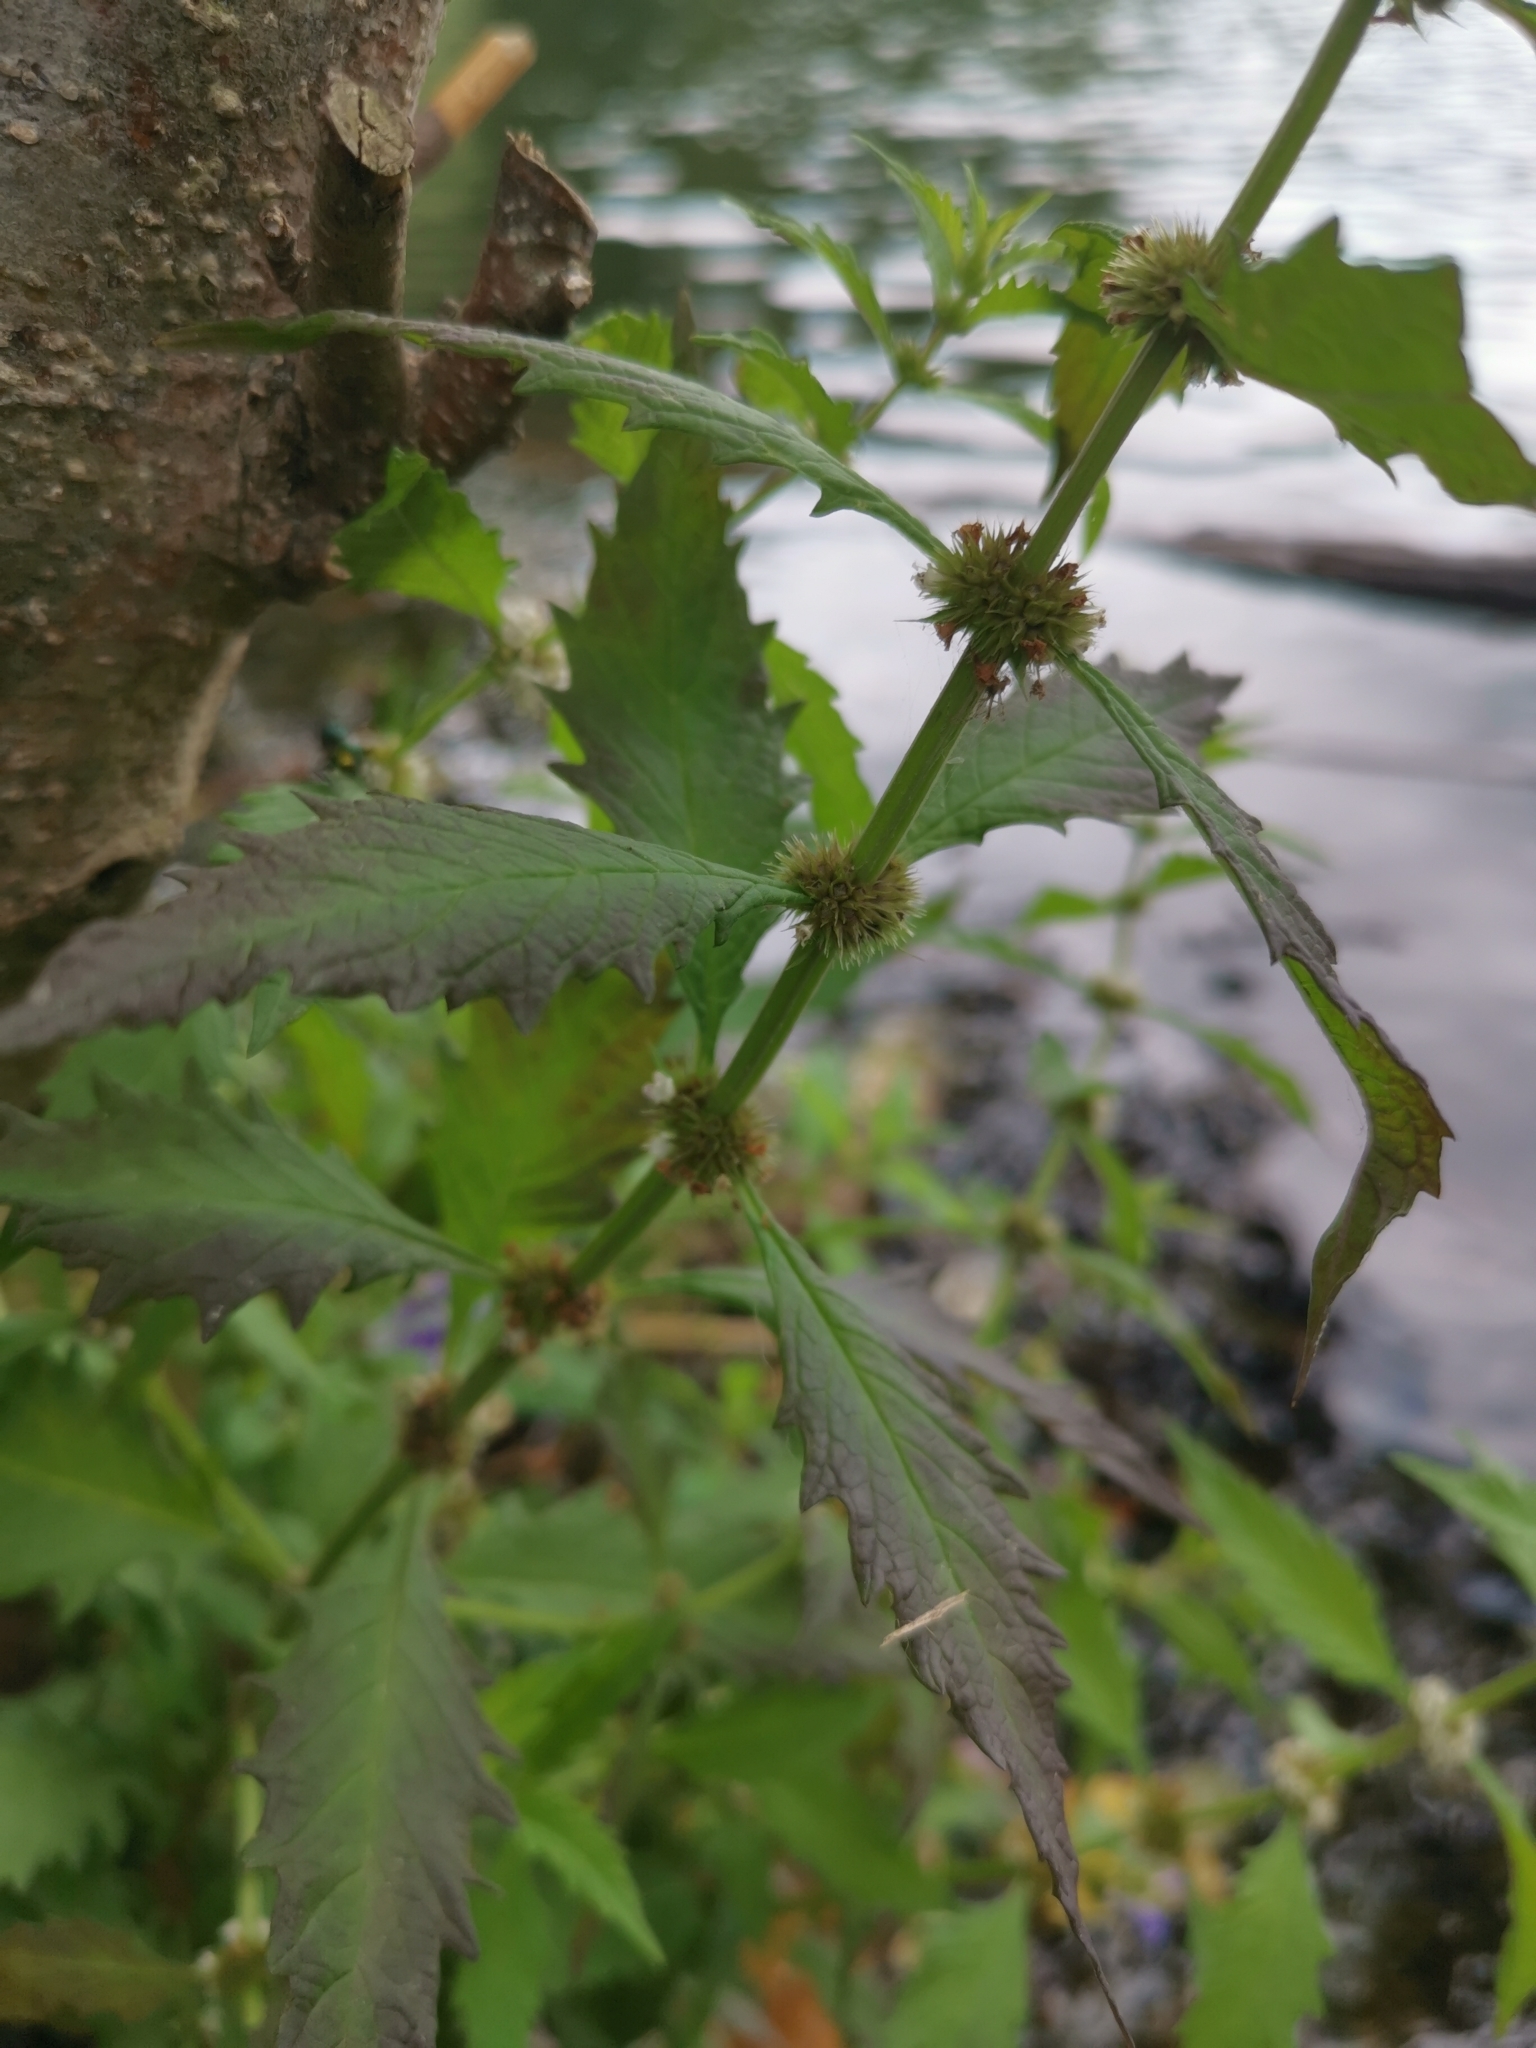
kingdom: Plantae
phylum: Tracheophyta
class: Magnoliopsida
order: Lamiales
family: Lamiaceae
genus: Lycopus
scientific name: Lycopus europaeus
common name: European bugleweed
